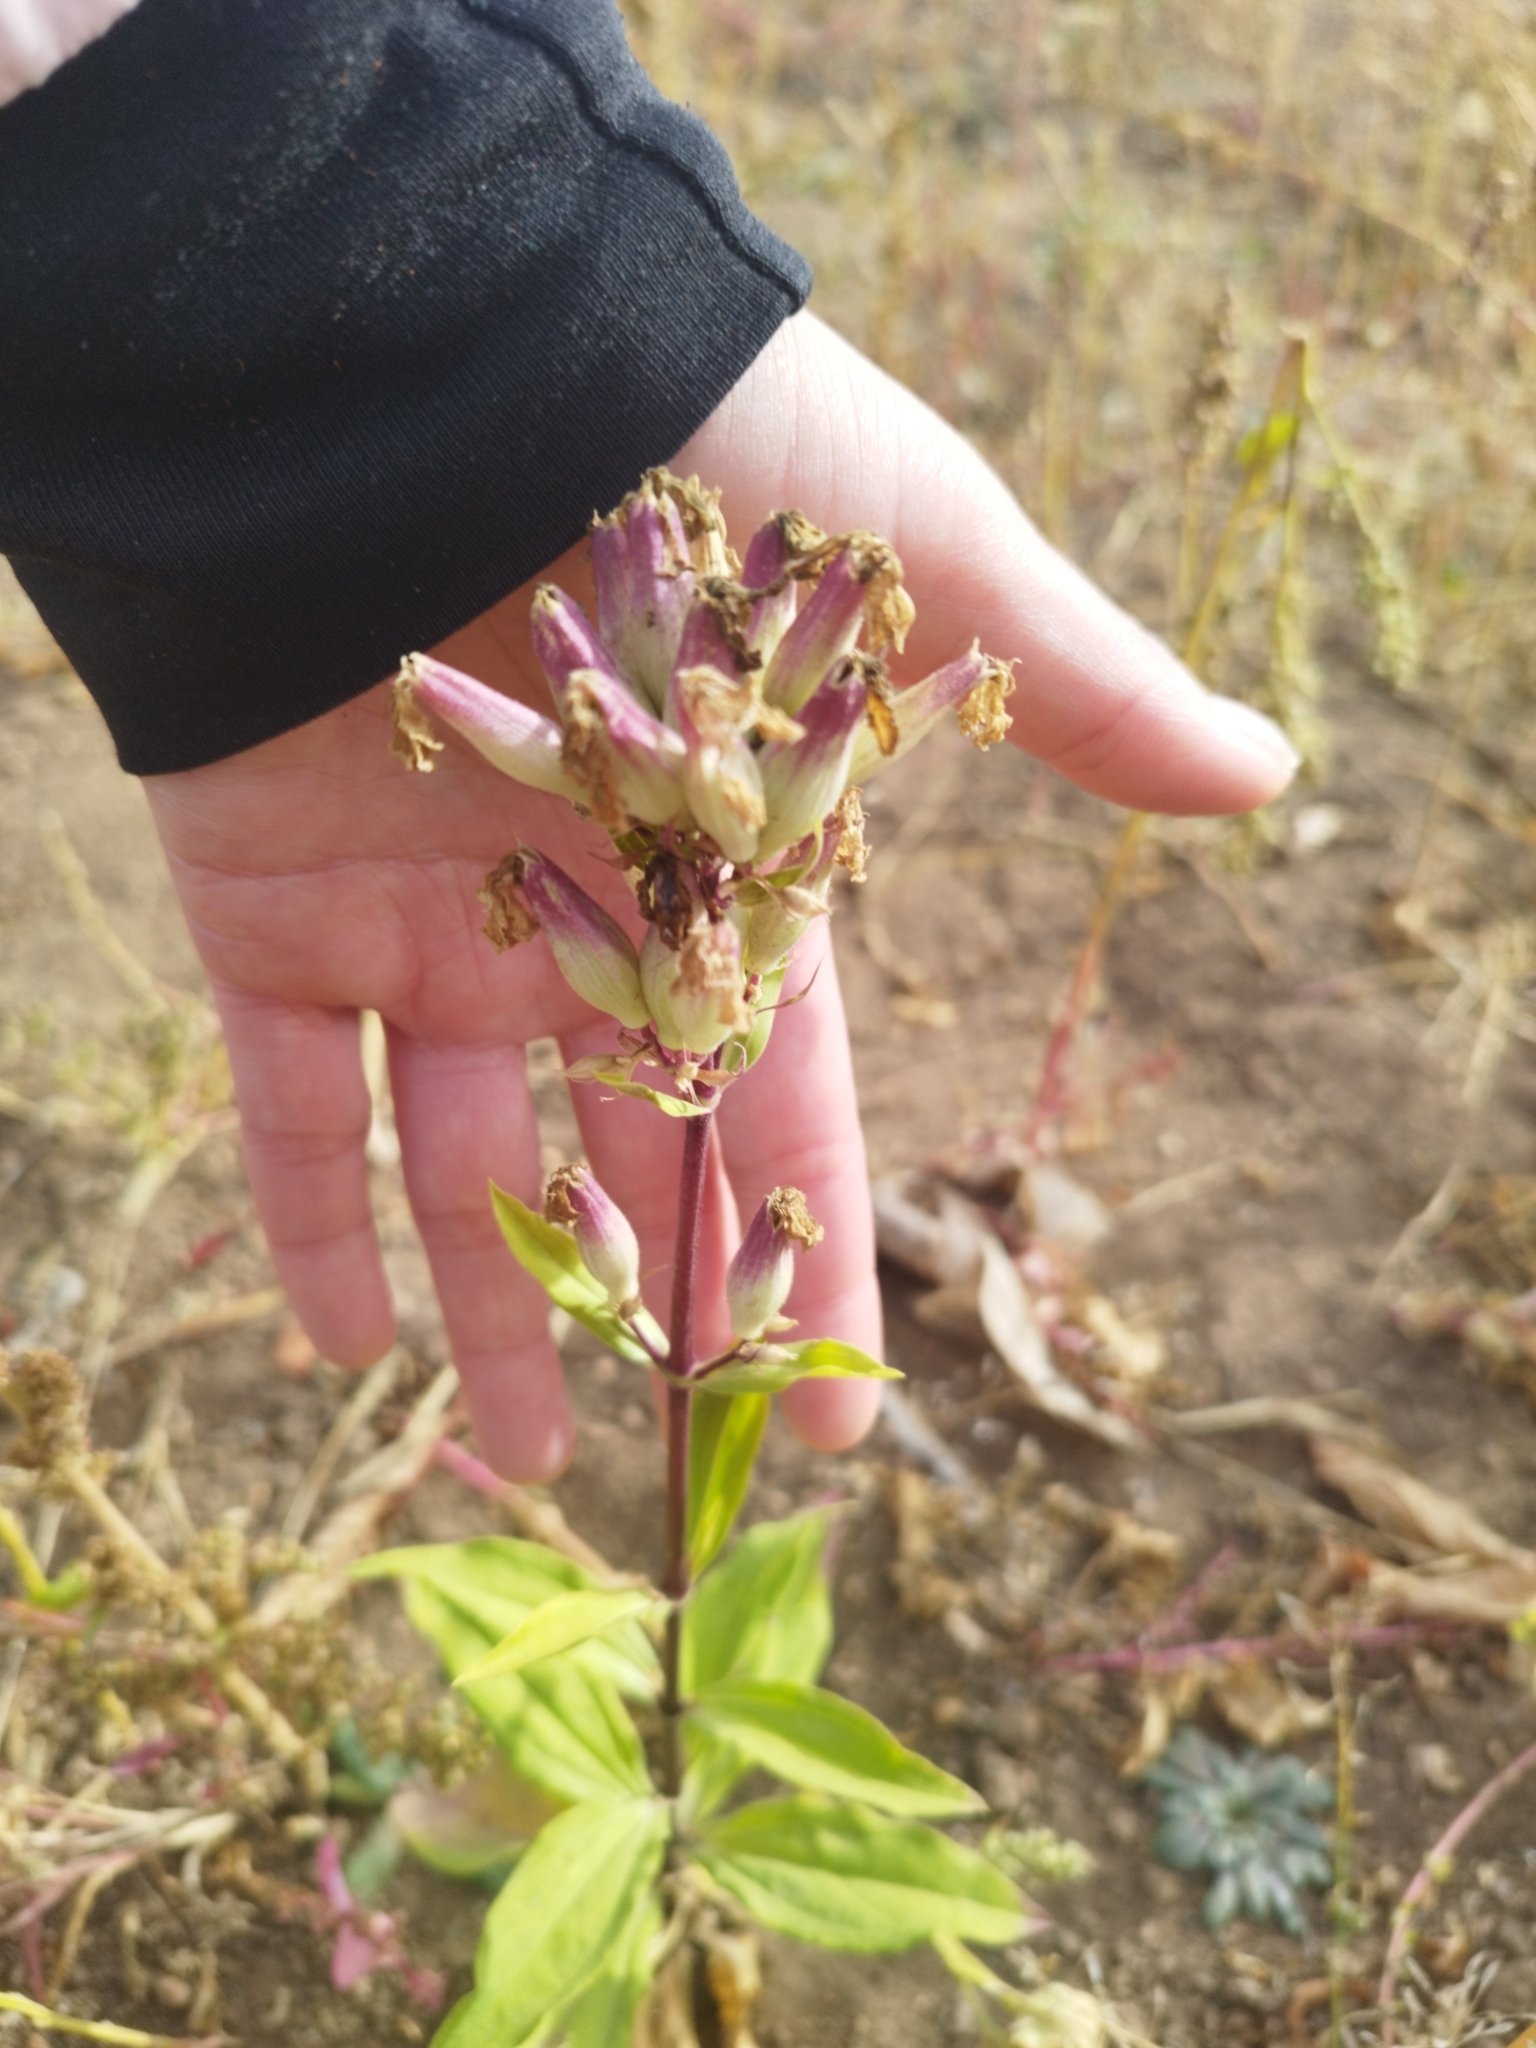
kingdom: Plantae
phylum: Tracheophyta
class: Magnoliopsida
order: Caryophyllales
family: Caryophyllaceae
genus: Saponaria
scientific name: Saponaria officinalis
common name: Soapwort
